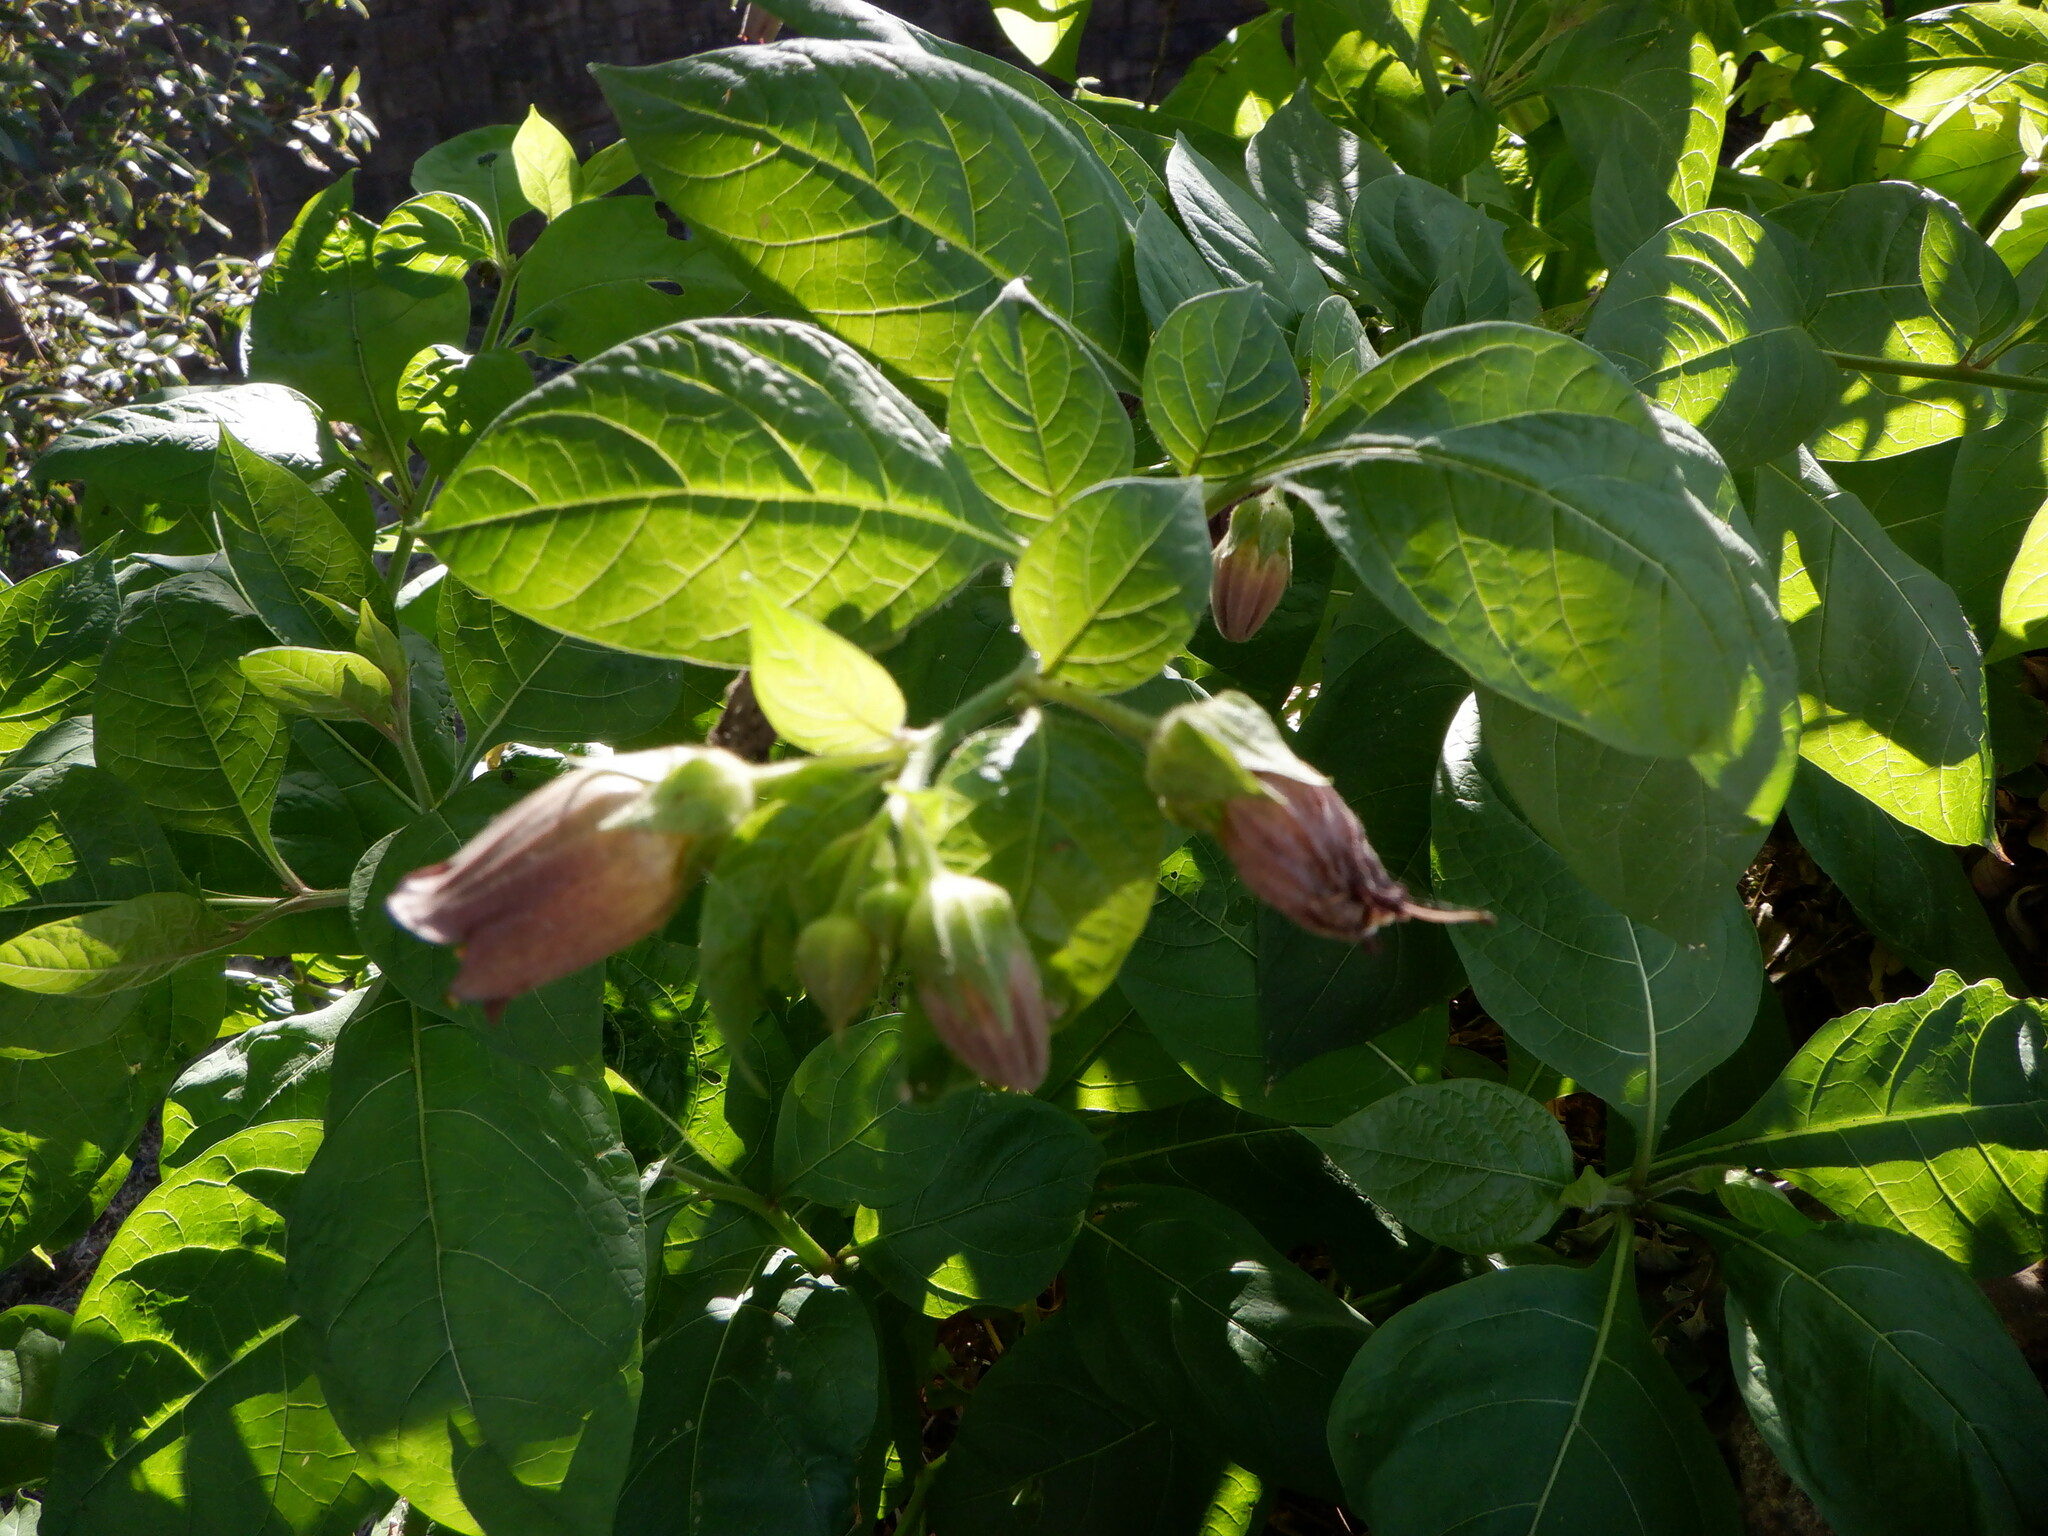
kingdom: Plantae
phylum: Tracheophyta
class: Magnoliopsida
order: Solanales
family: Solanaceae
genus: Atropa
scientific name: Atropa belladonna
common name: Deadly nightshade
